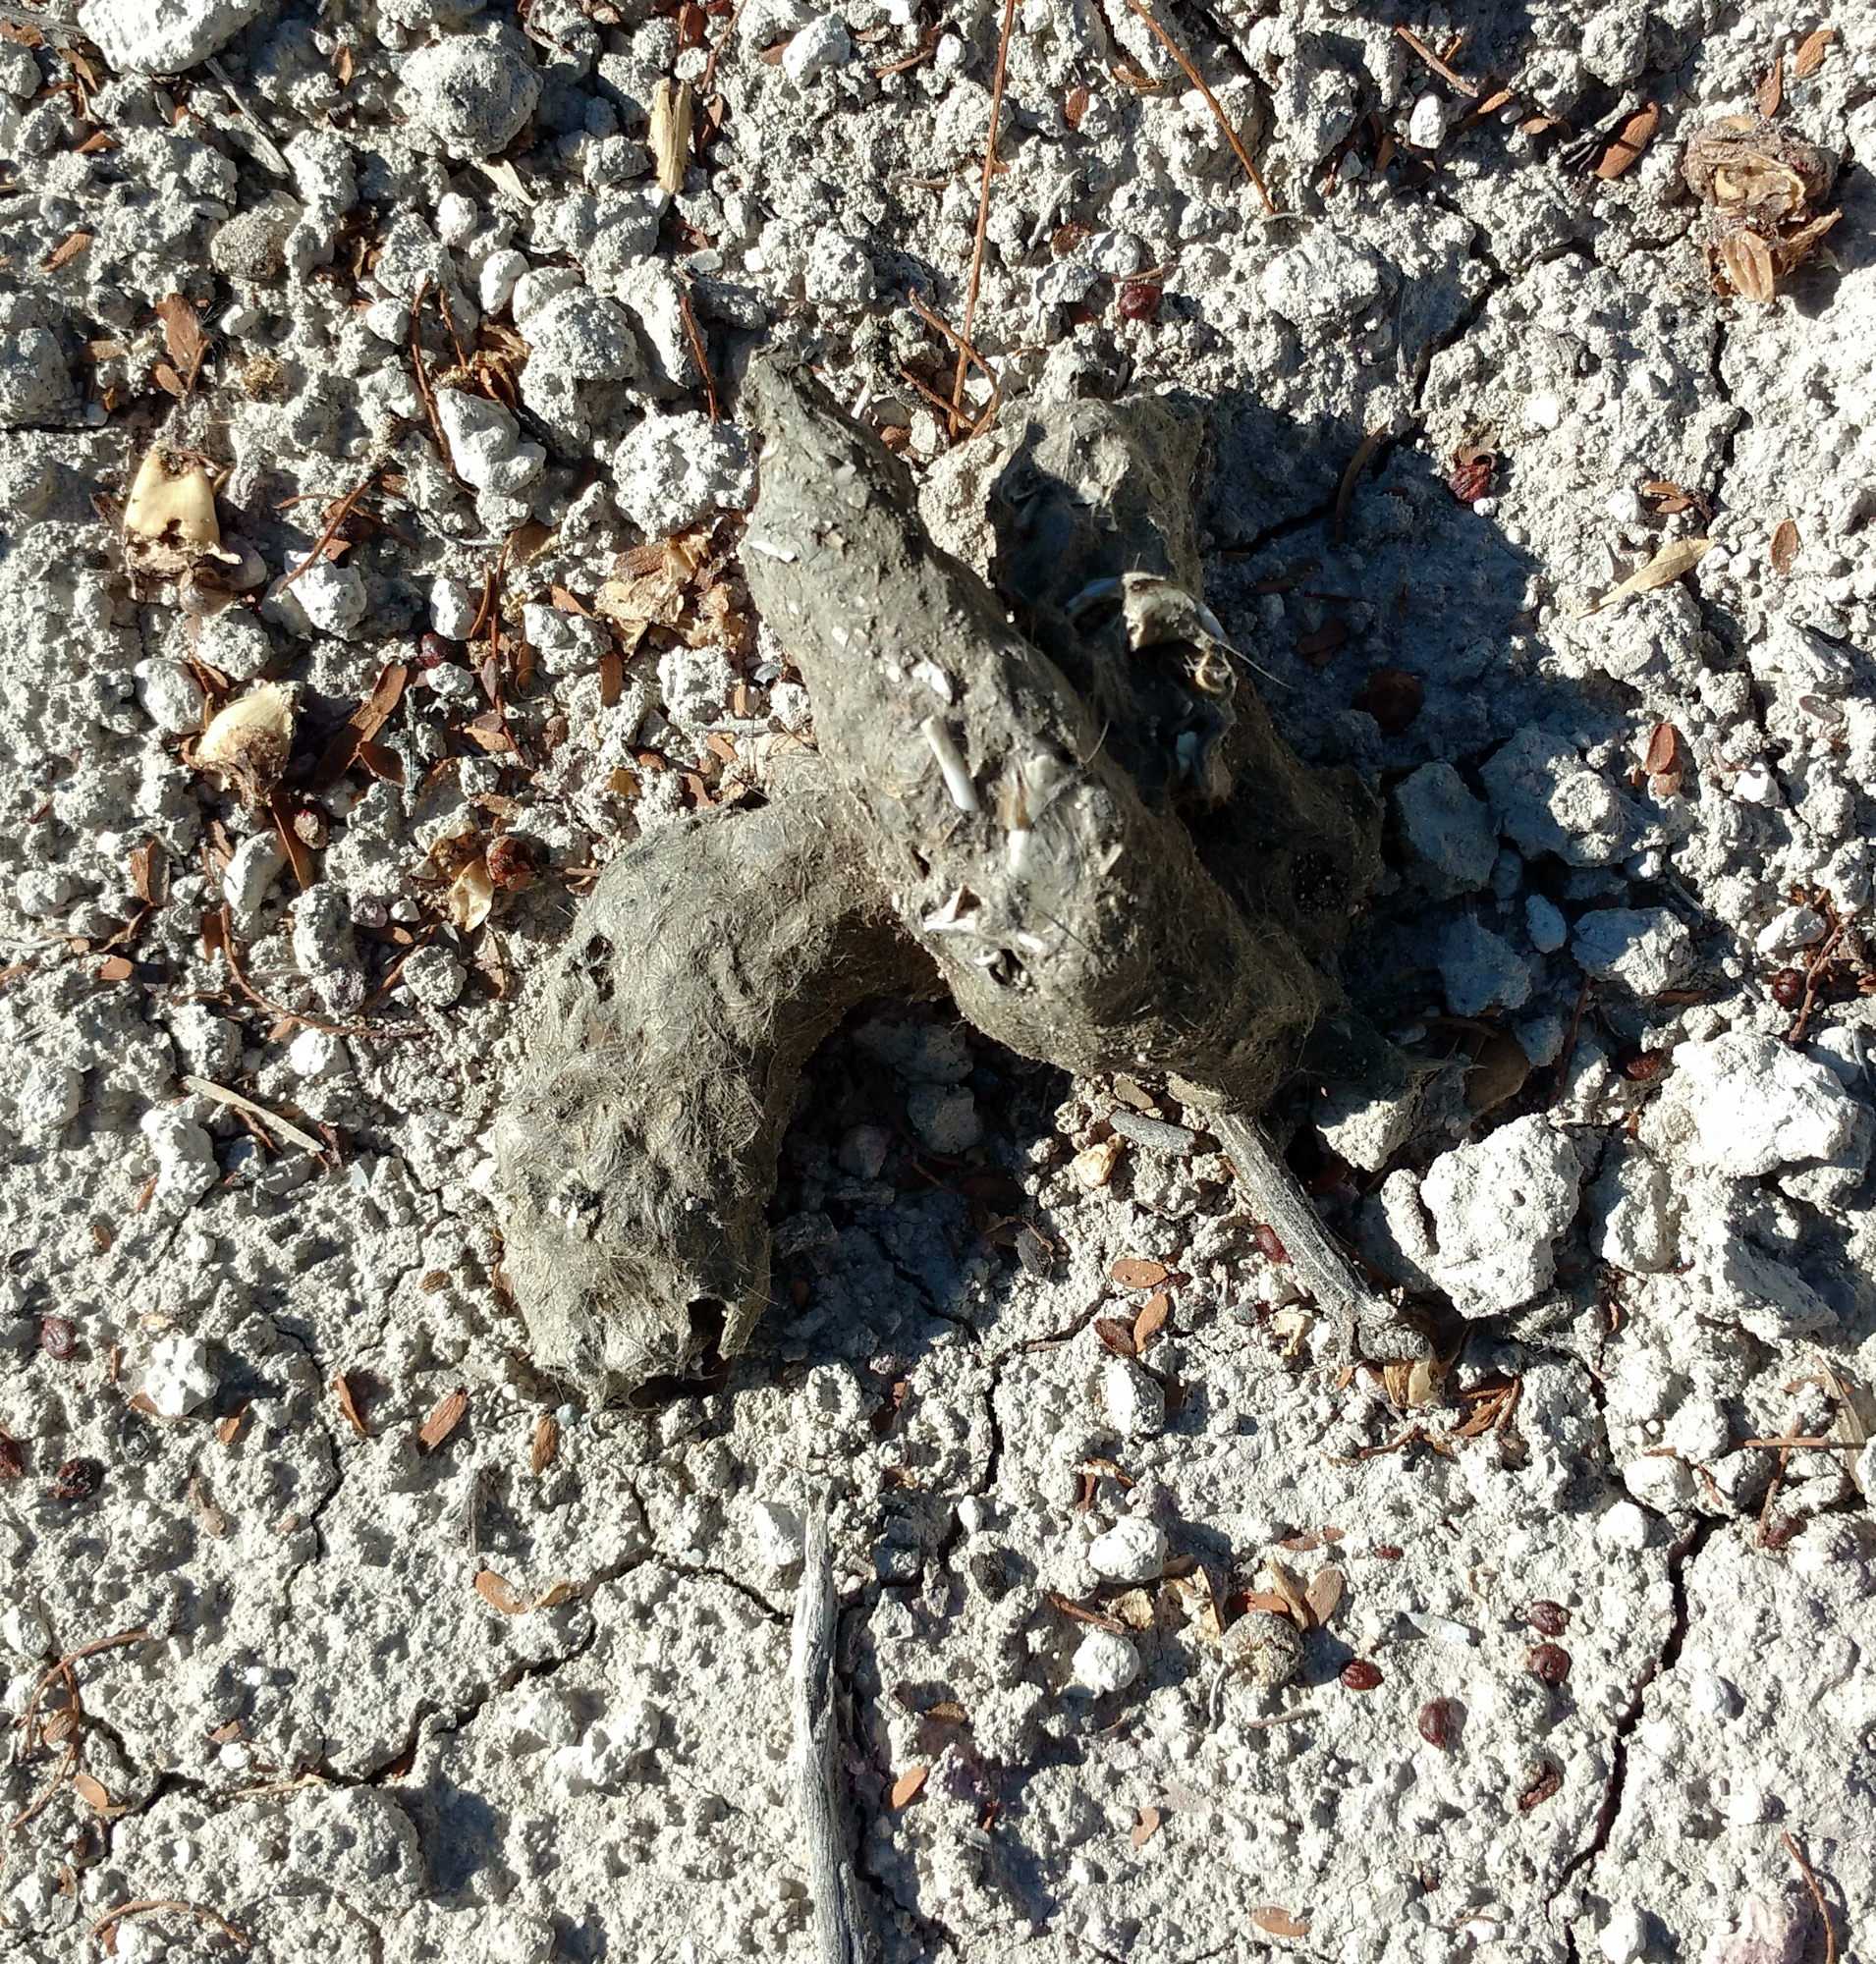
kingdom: Animalia
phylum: Chordata
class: Mammalia
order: Carnivora
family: Felidae
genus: Lynx
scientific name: Lynx rufus
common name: Bobcat
